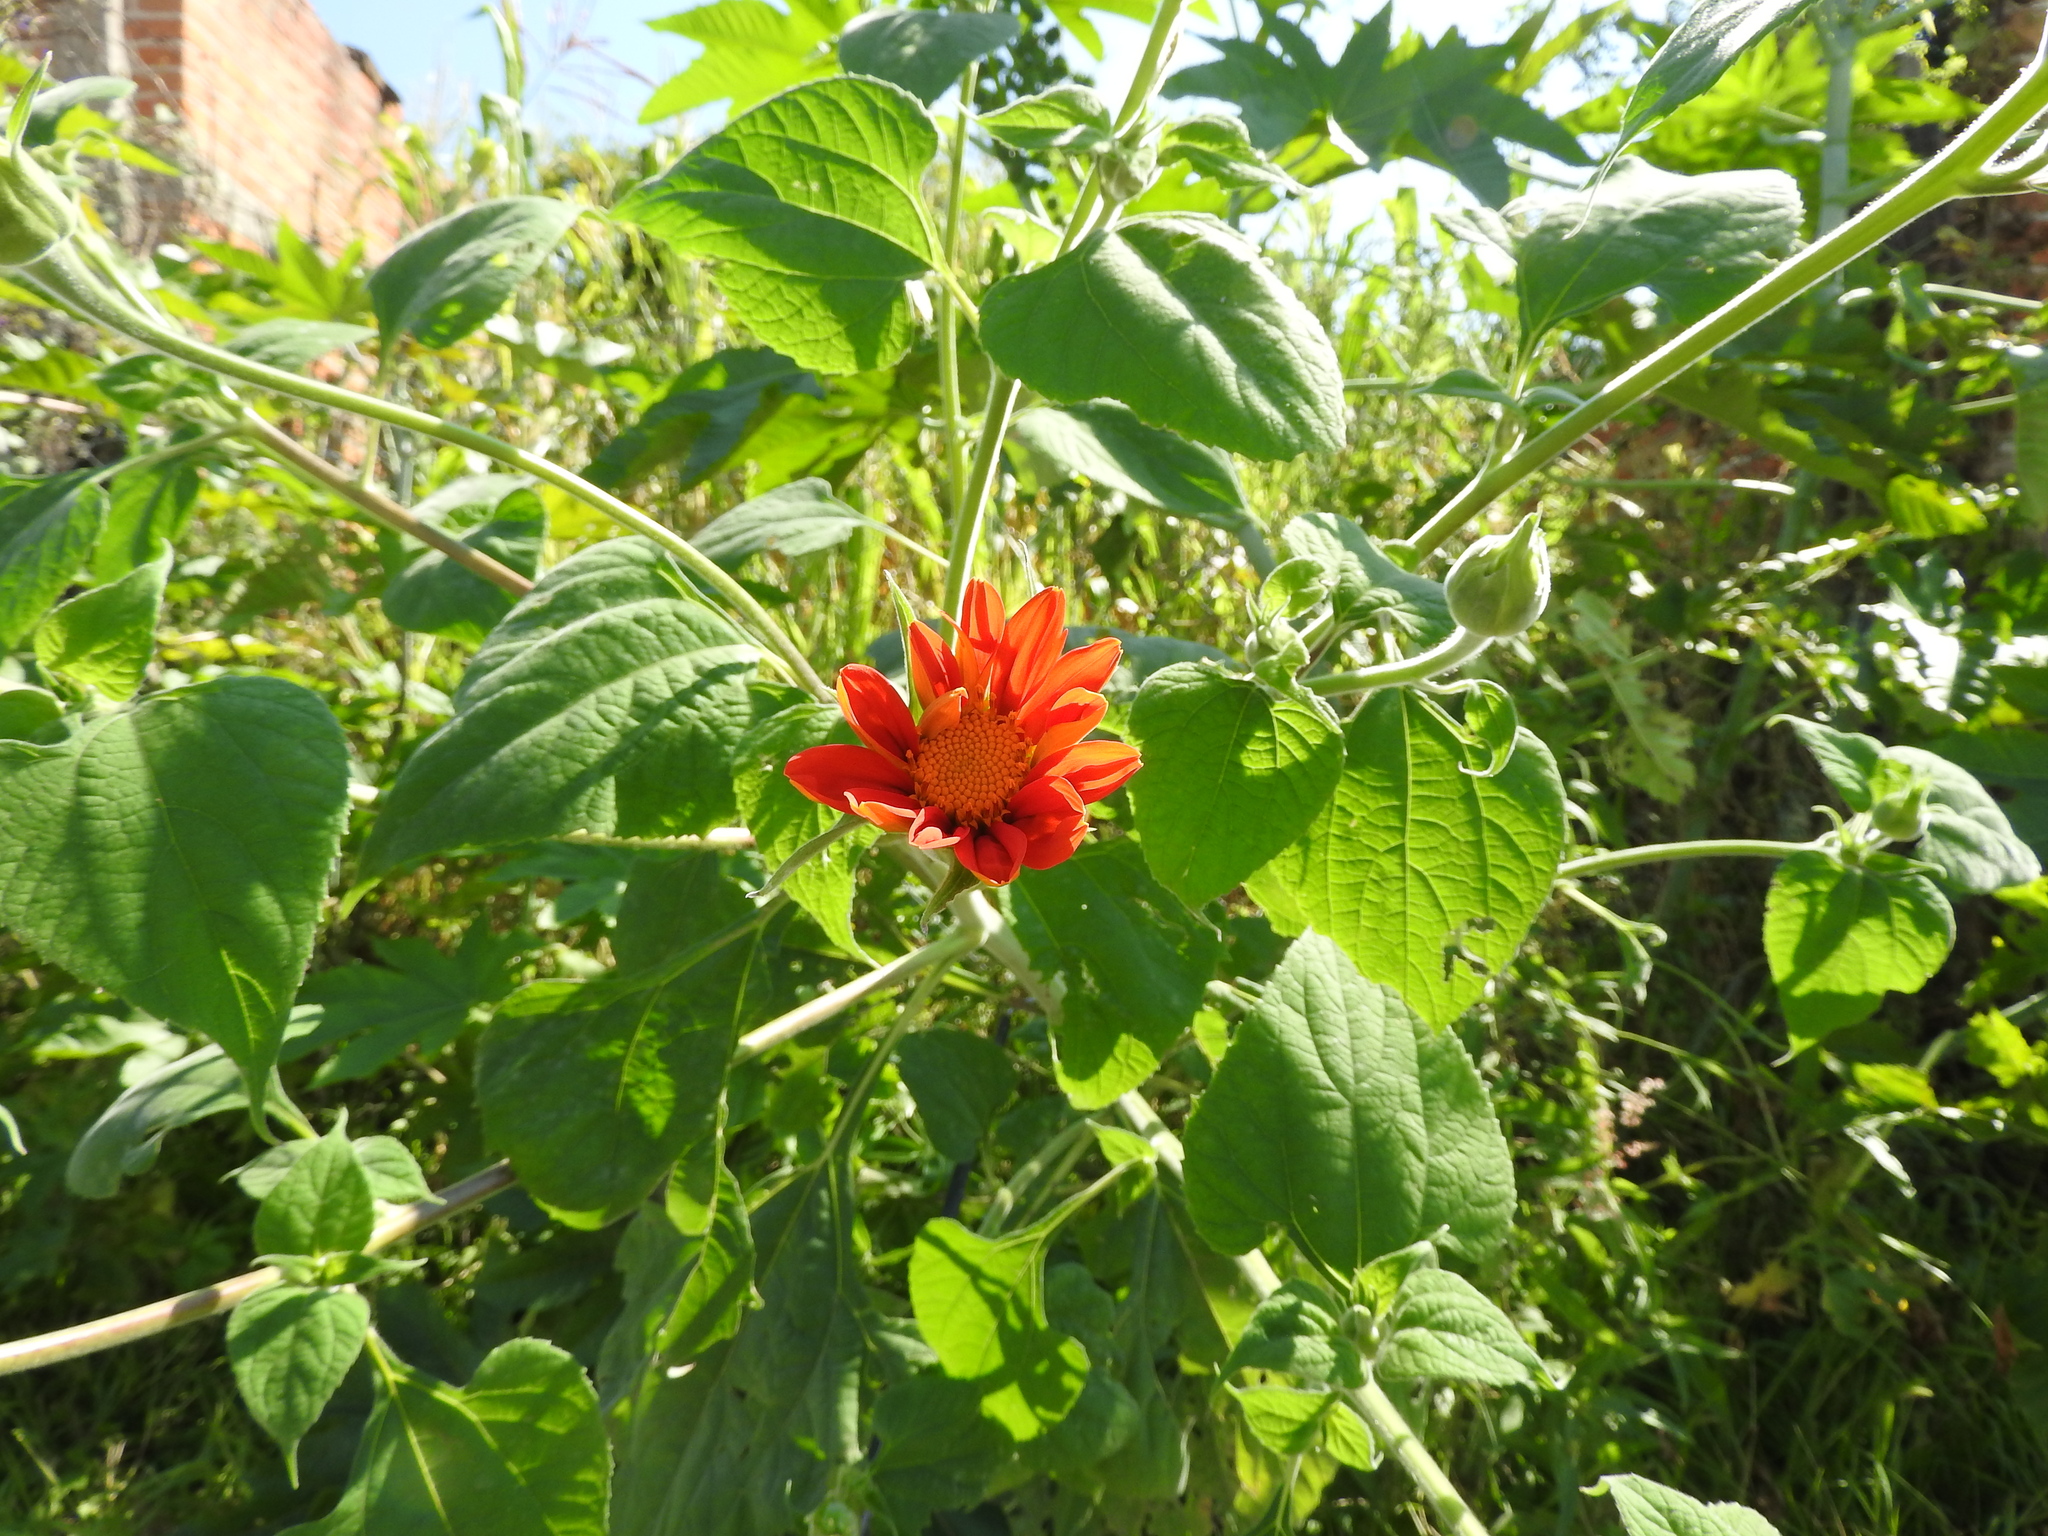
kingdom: Plantae
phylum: Tracheophyta
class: Magnoliopsida
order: Asterales
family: Asteraceae
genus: Tithonia
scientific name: Tithonia rotundifolia
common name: Sunflower
